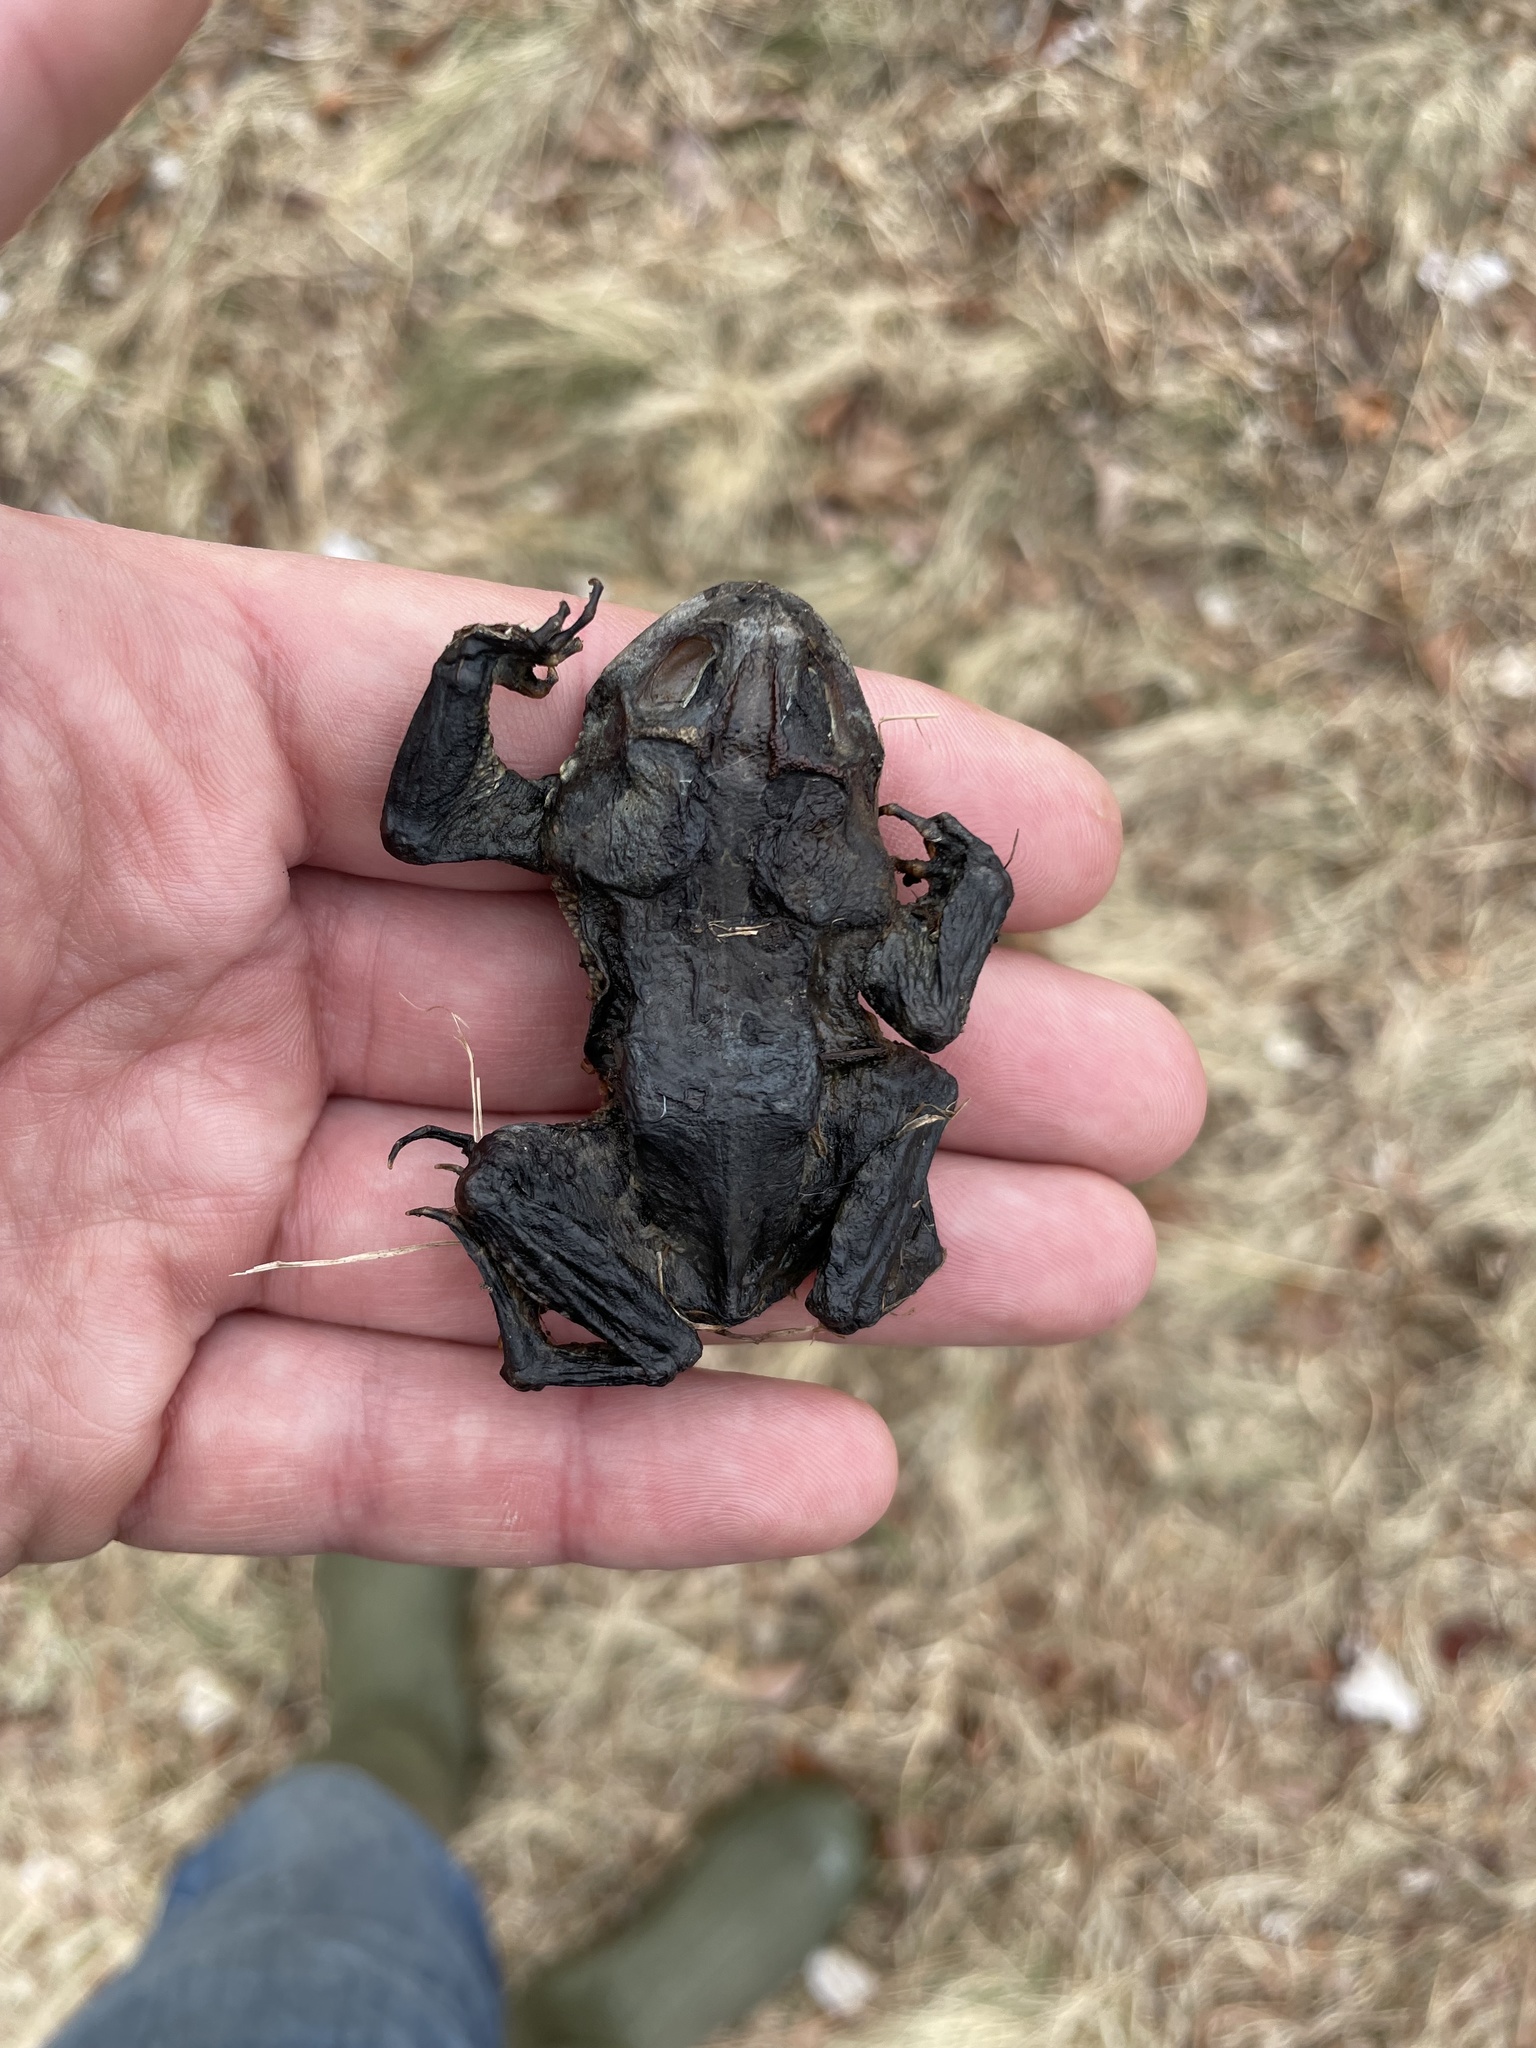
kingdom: Animalia
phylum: Chordata
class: Amphibia
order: Anura
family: Bufonidae
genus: Anaxyrus
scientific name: Anaxyrus americanus
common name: American toad
